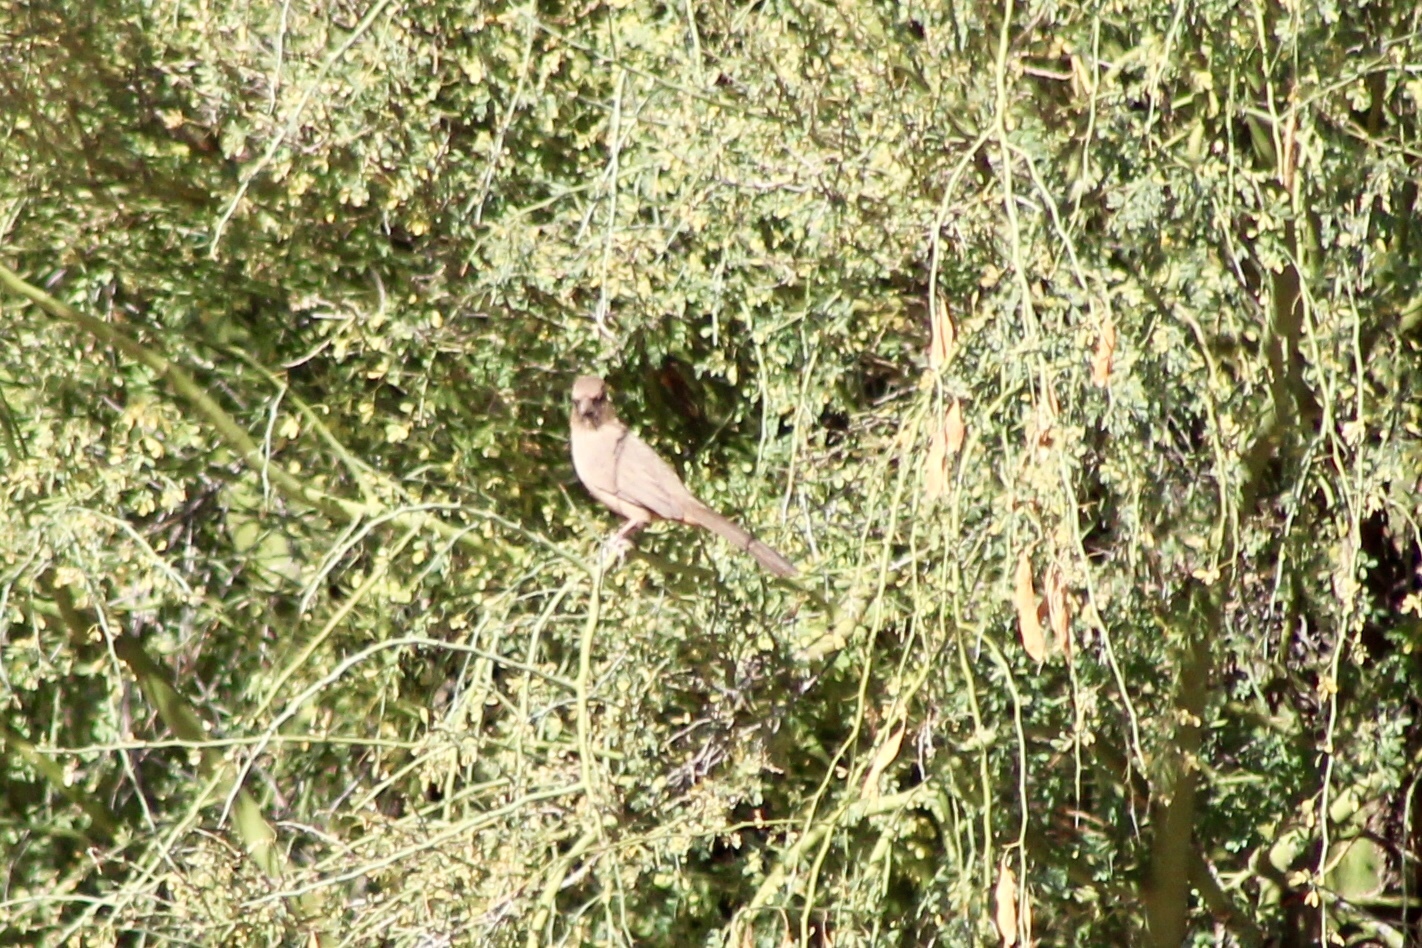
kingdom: Animalia
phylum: Chordata
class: Aves
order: Passeriformes
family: Passerellidae
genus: Melozone
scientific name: Melozone aberti
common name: Abert's towhee
